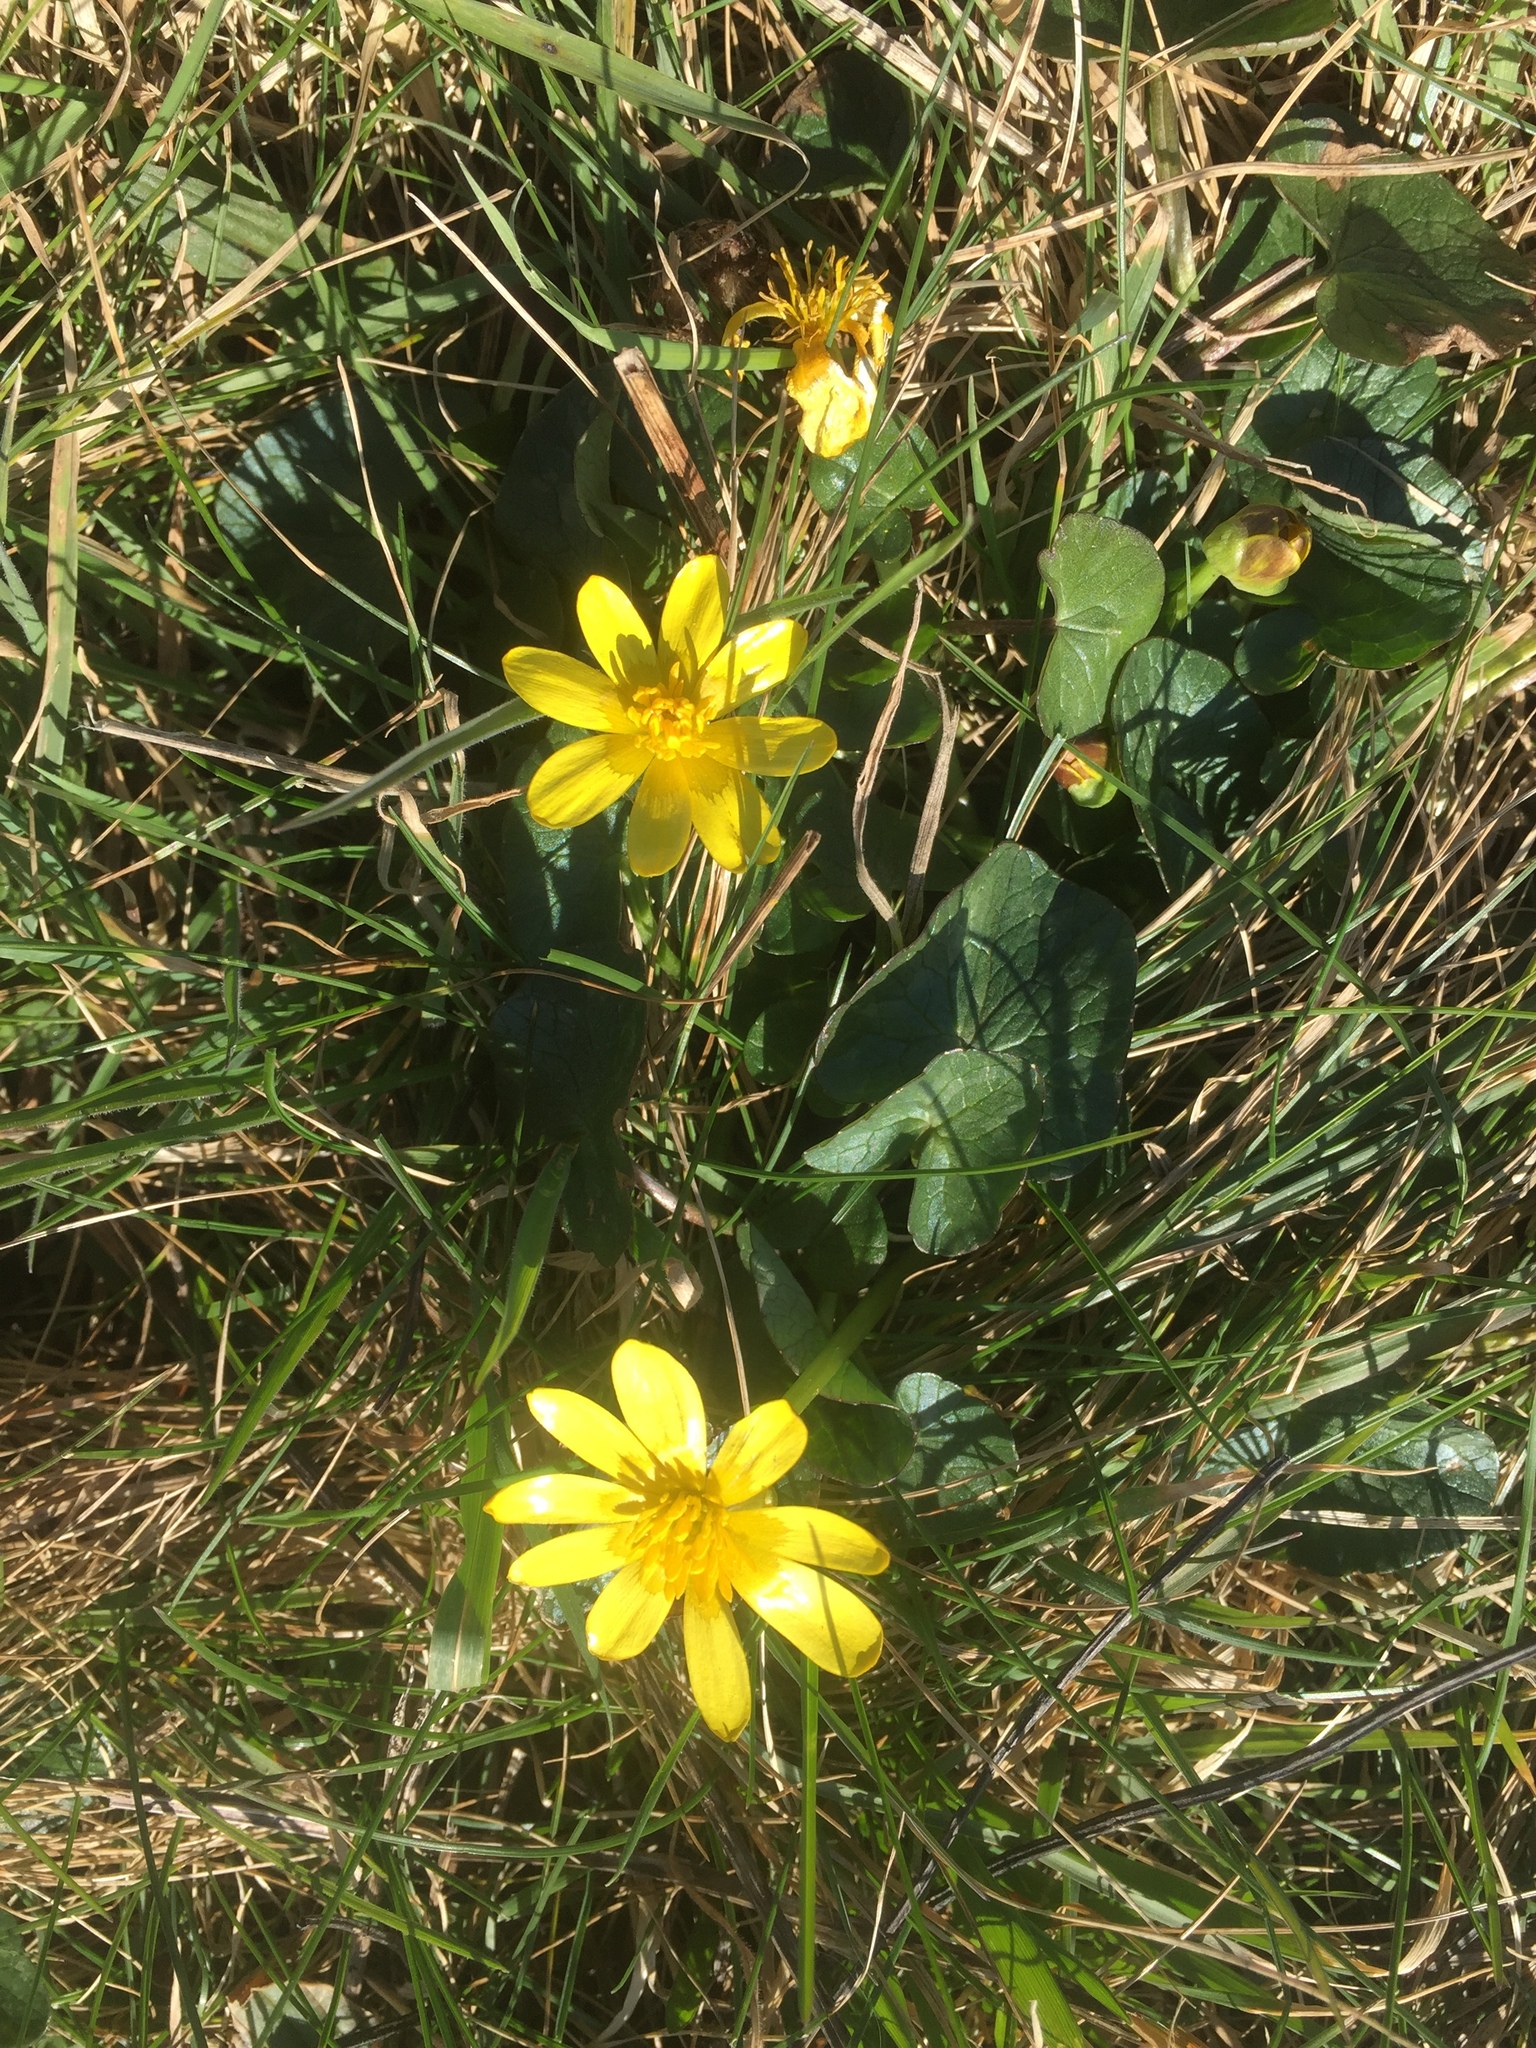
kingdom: Plantae
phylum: Tracheophyta
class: Magnoliopsida
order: Ranunculales
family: Ranunculaceae
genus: Ficaria
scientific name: Ficaria verna
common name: Lesser celandine
